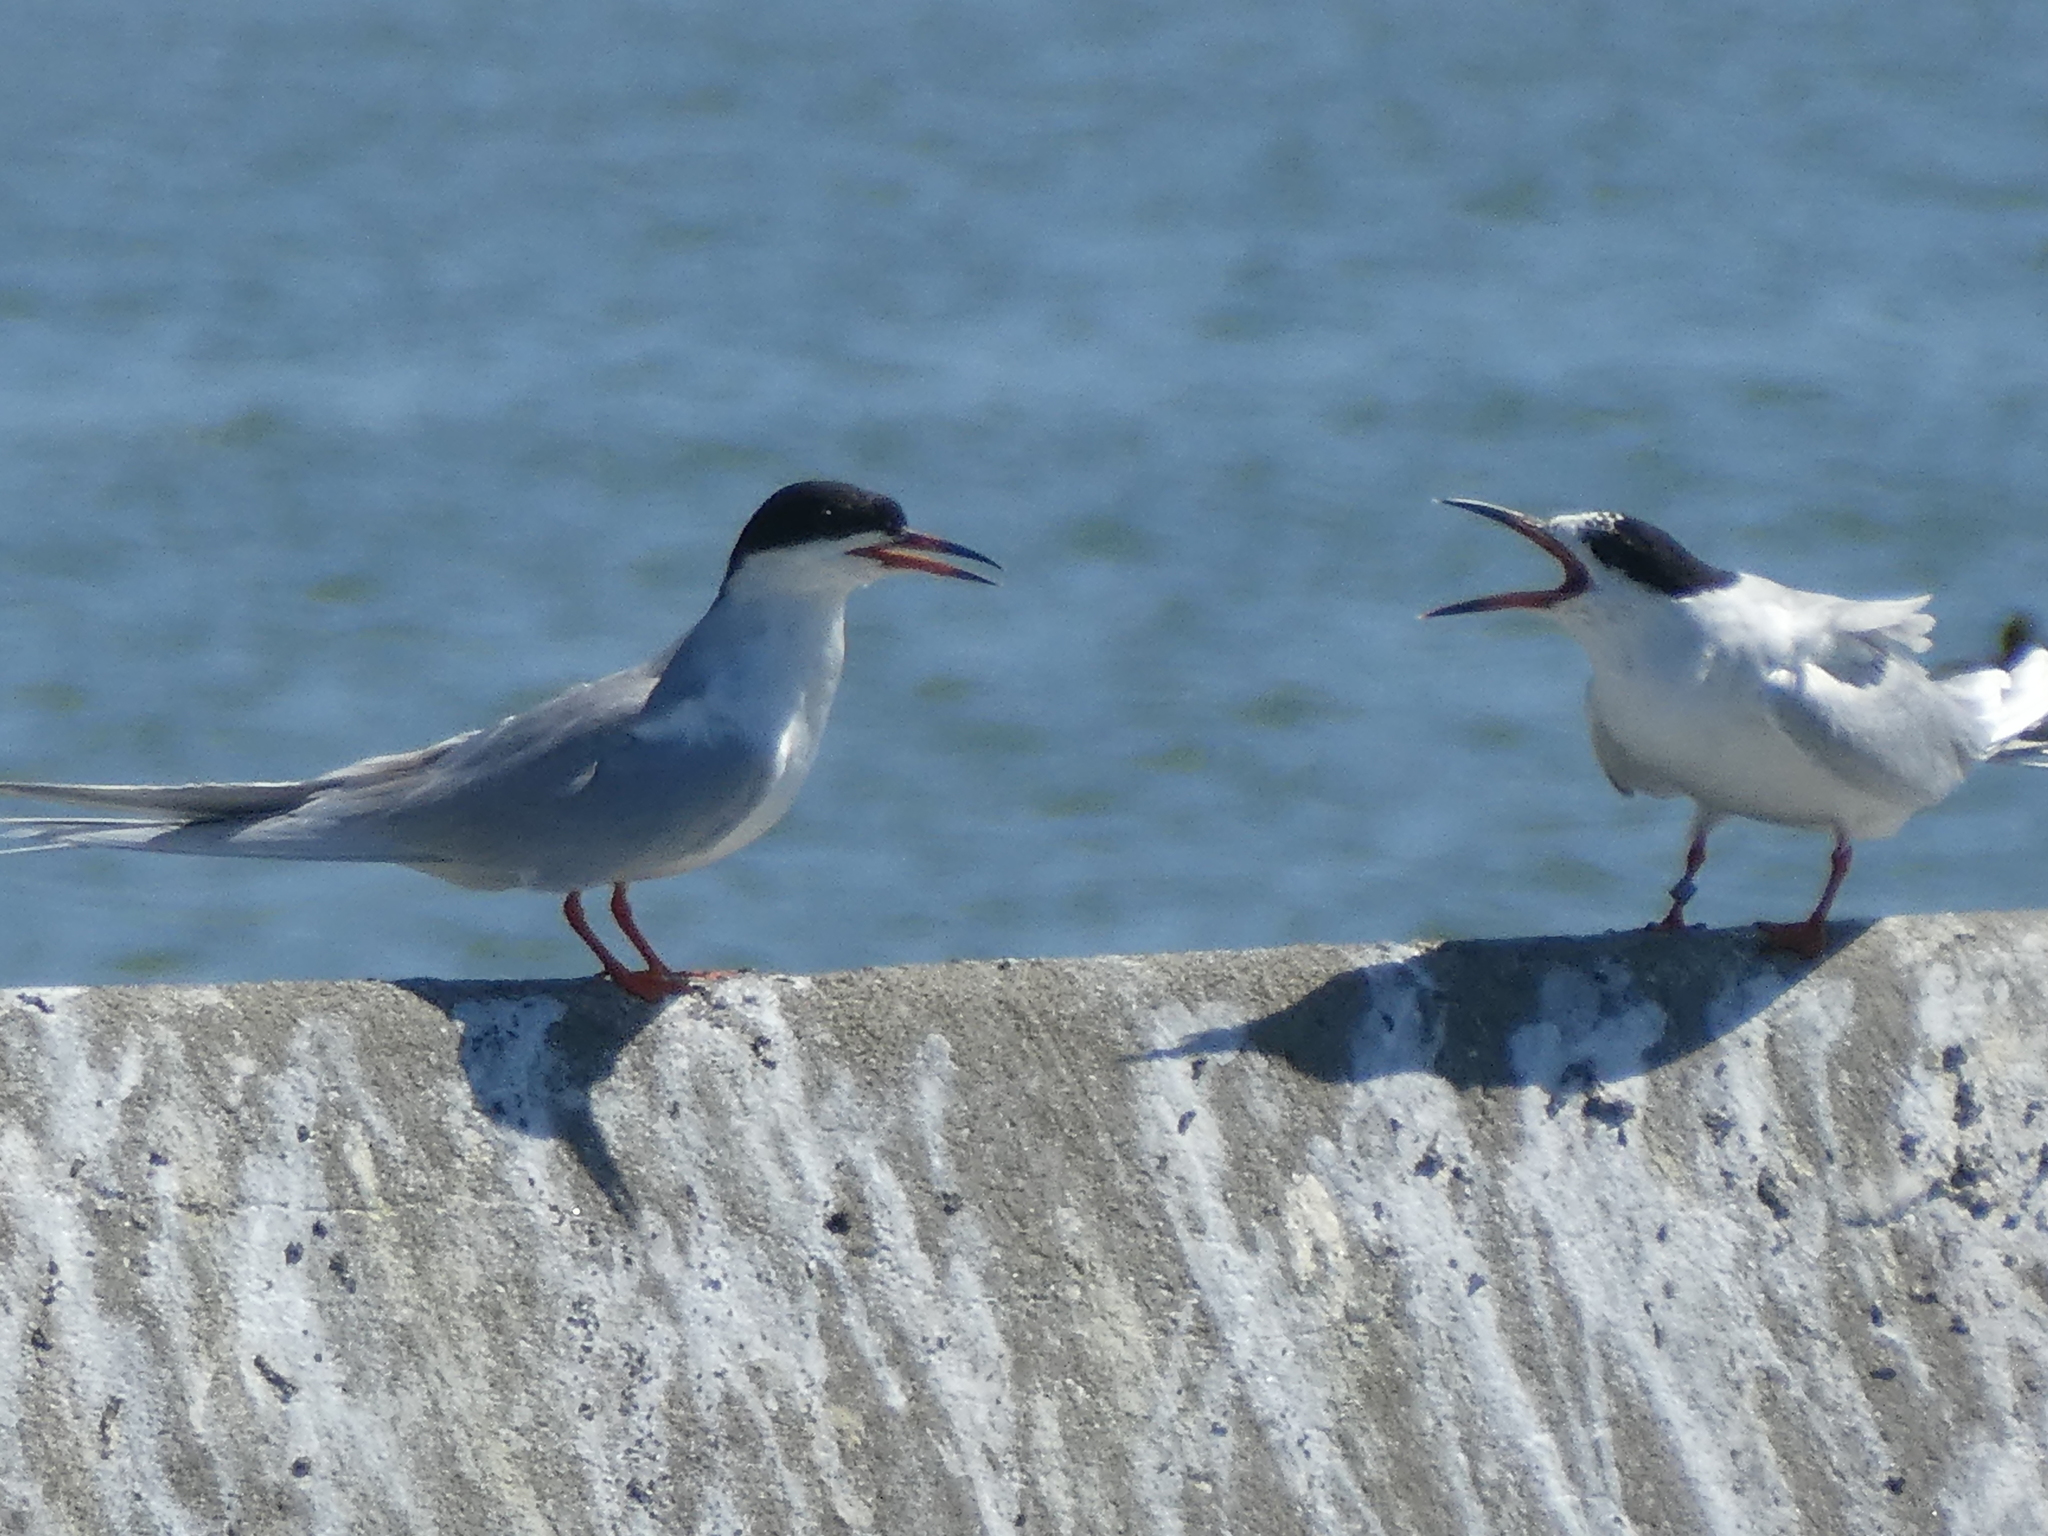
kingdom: Animalia
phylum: Chordata
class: Aves
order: Charadriiformes
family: Laridae
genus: Sterna
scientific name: Sterna forsteri
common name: Forster's tern
